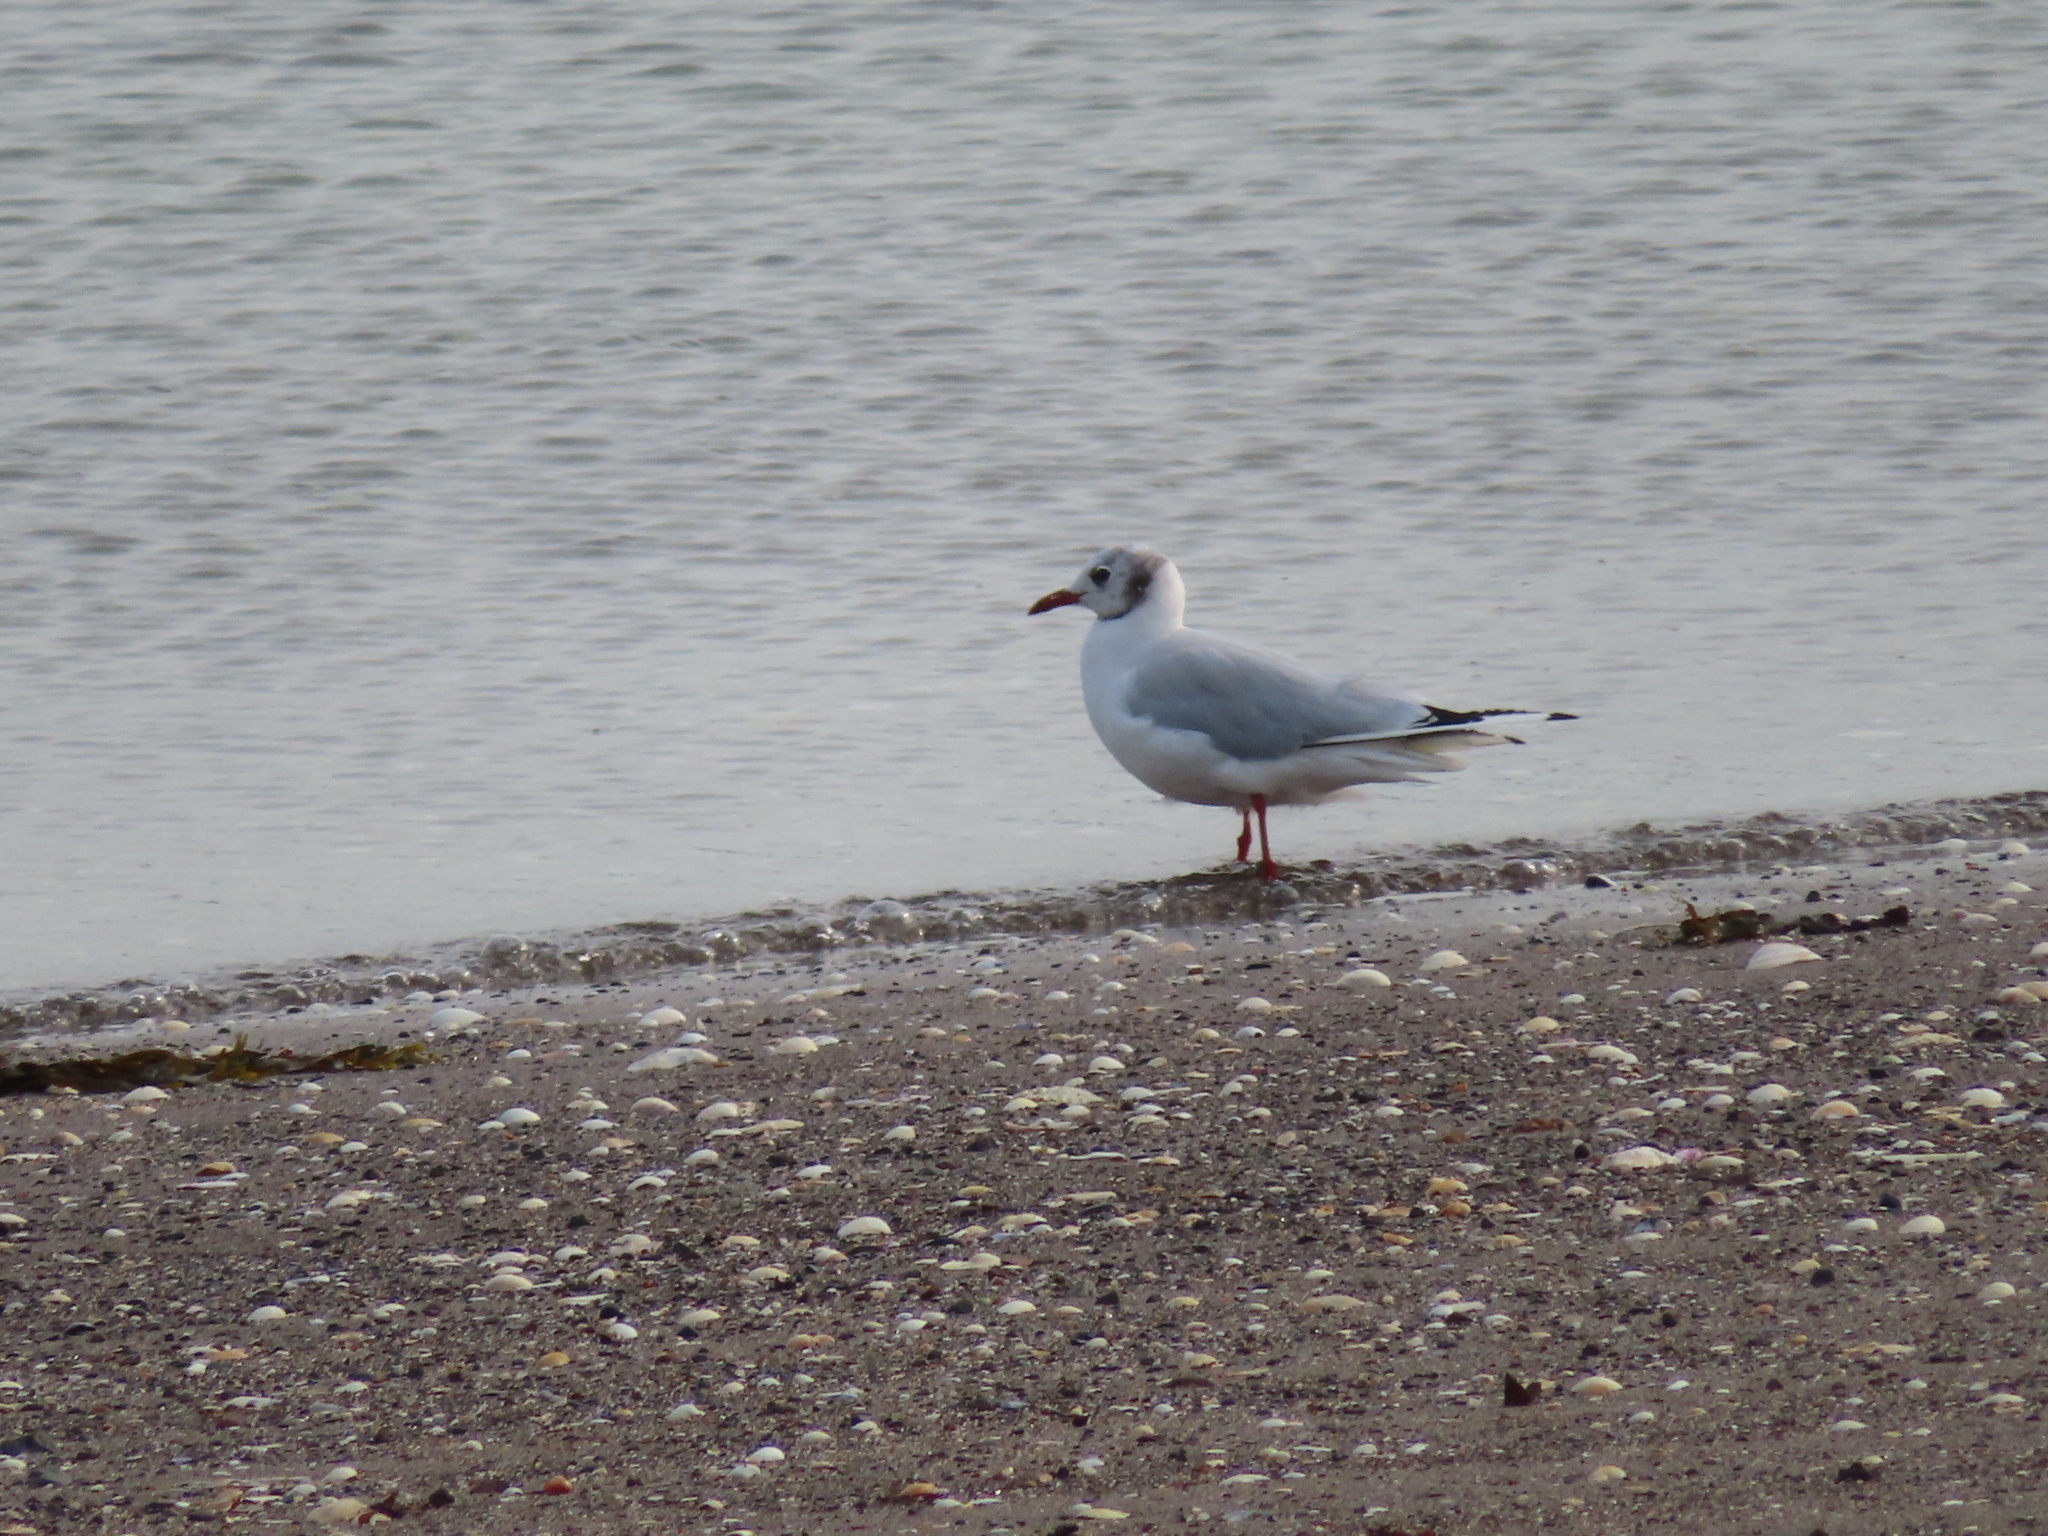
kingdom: Animalia
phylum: Chordata
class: Aves
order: Charadriiformes
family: Laridae
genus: Chroicocephalus
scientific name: Chroicocephalus ridibundus
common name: Black-headed gull
